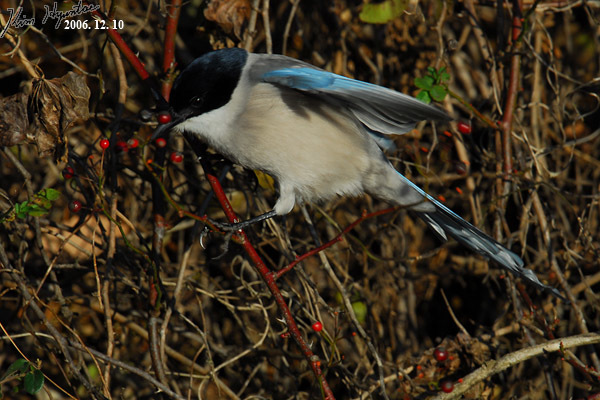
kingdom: Animalia
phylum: Chordata
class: Aves
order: Passeriformes
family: Corvidae
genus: Cyanopica
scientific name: Cyanopica cyanus
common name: Azure-winged magpie
